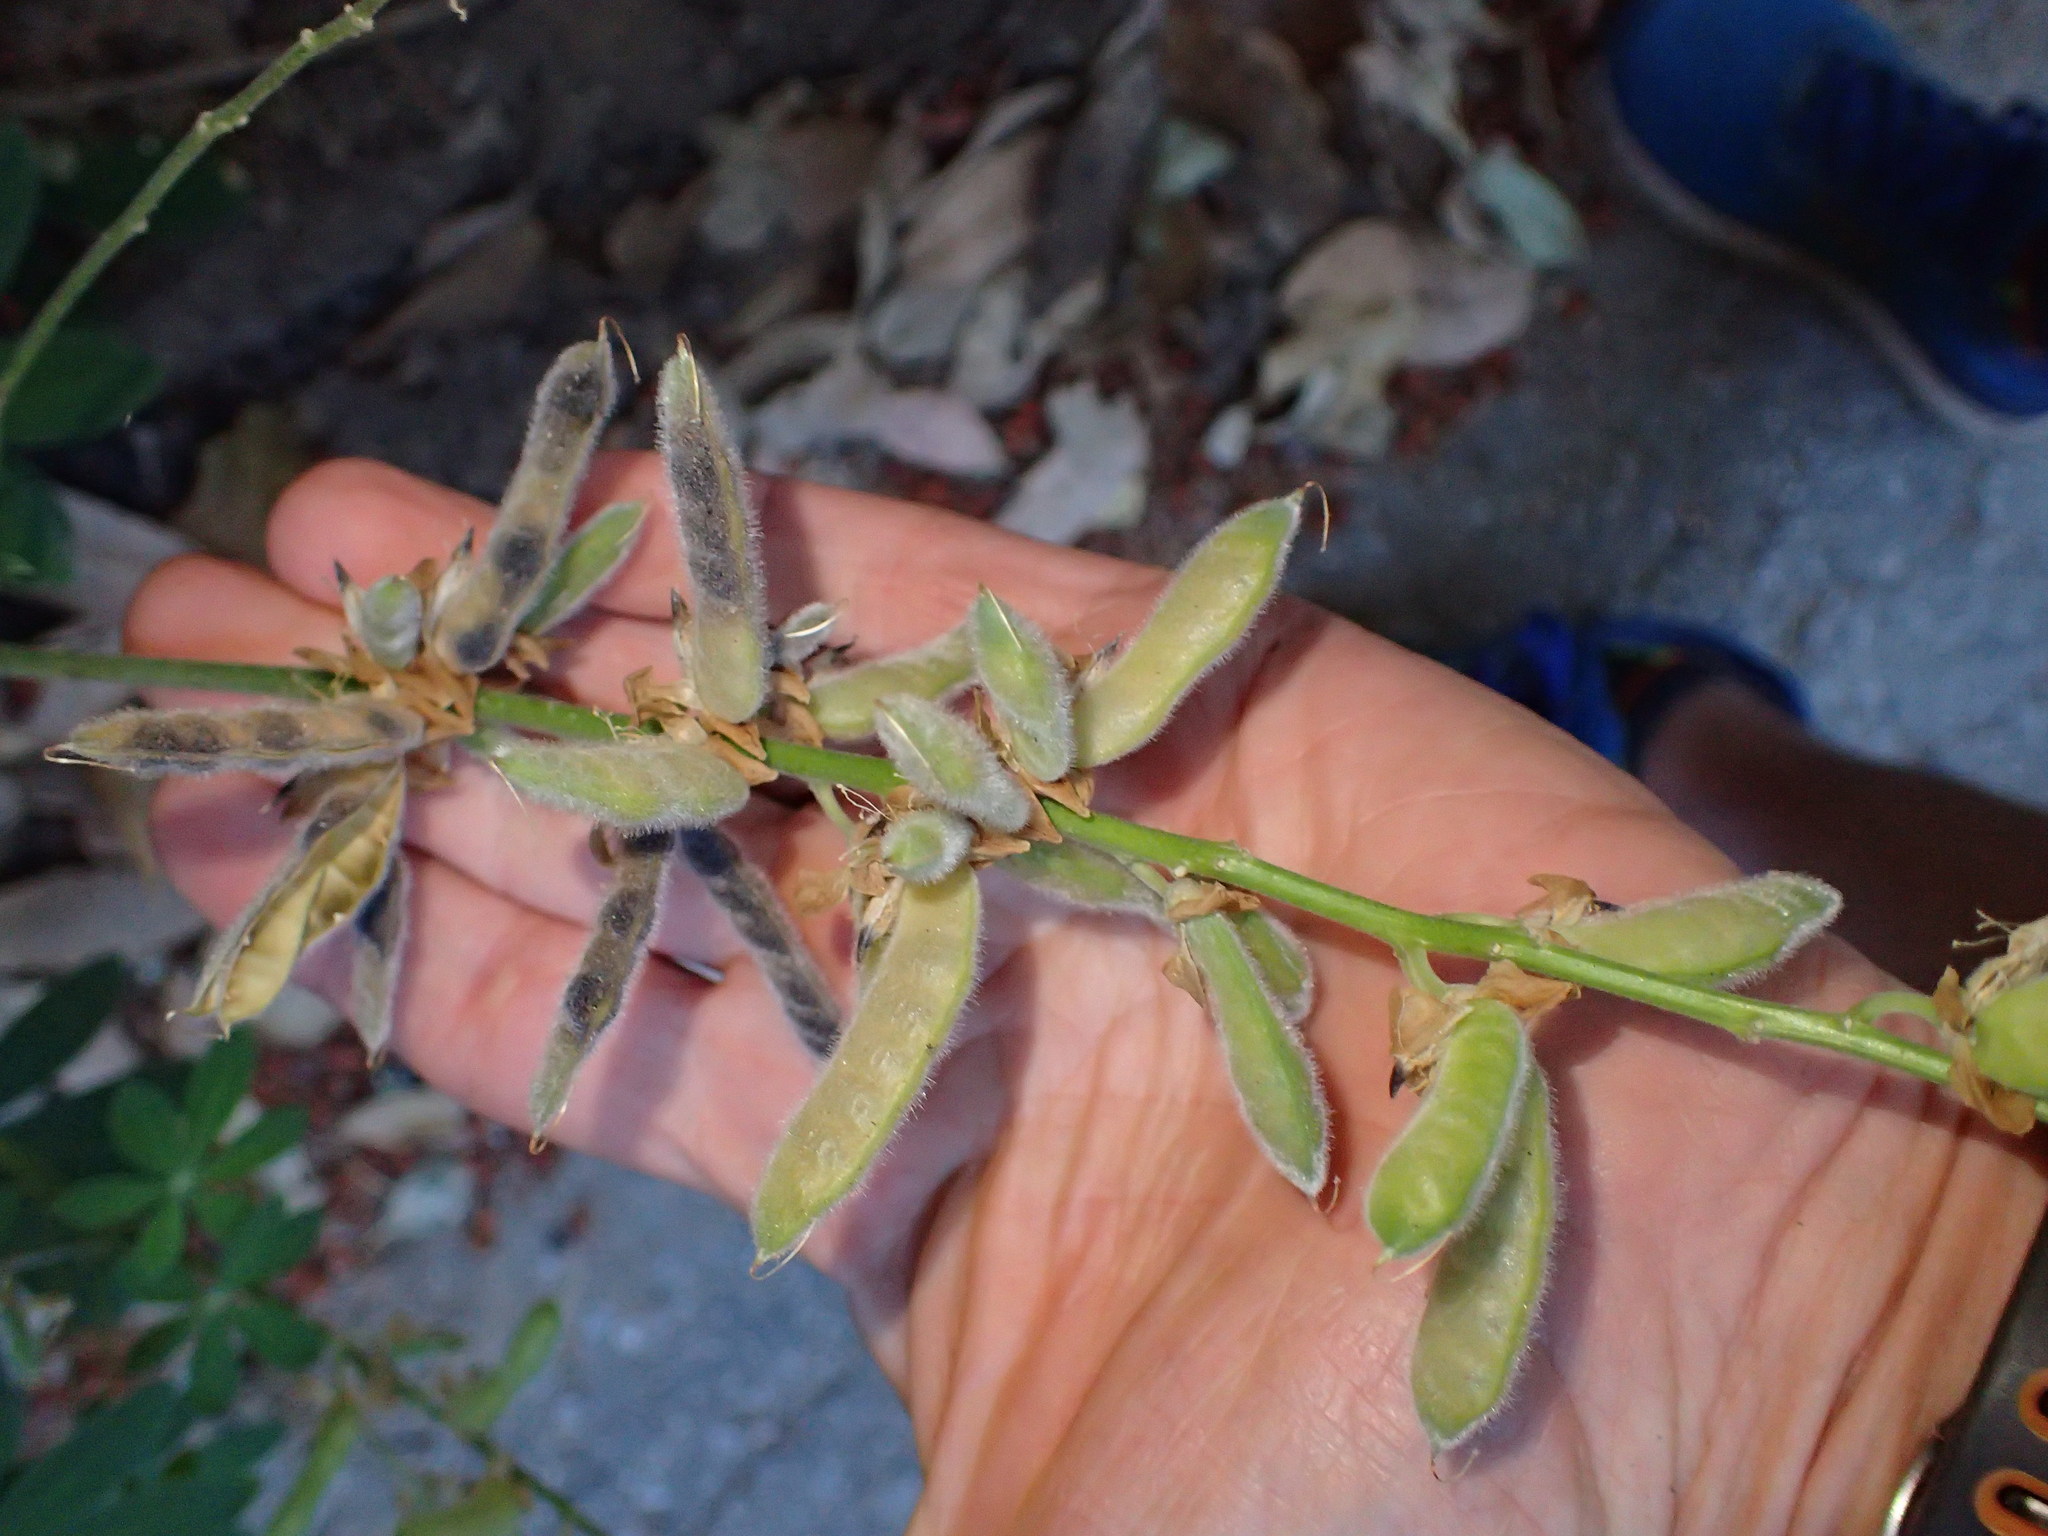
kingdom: Plantae
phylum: Tracheophyta
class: Magnoliopsida
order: Fabales
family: Fabaceae
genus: Lupinus
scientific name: Lupinus latifolius
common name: Broad-leaved lupine
